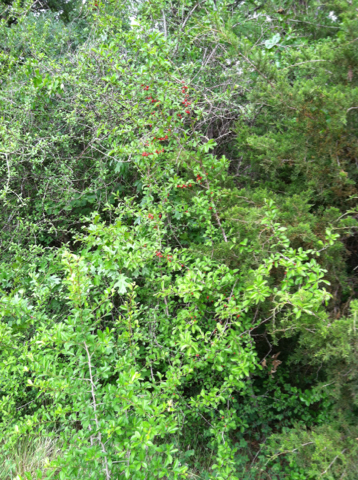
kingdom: Plantae
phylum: Tracheophyta
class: Magnoliopsida
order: Aquifoliales
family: Aquifoliaceae
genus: Ilex
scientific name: Ilex decidua
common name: Possum-haw
